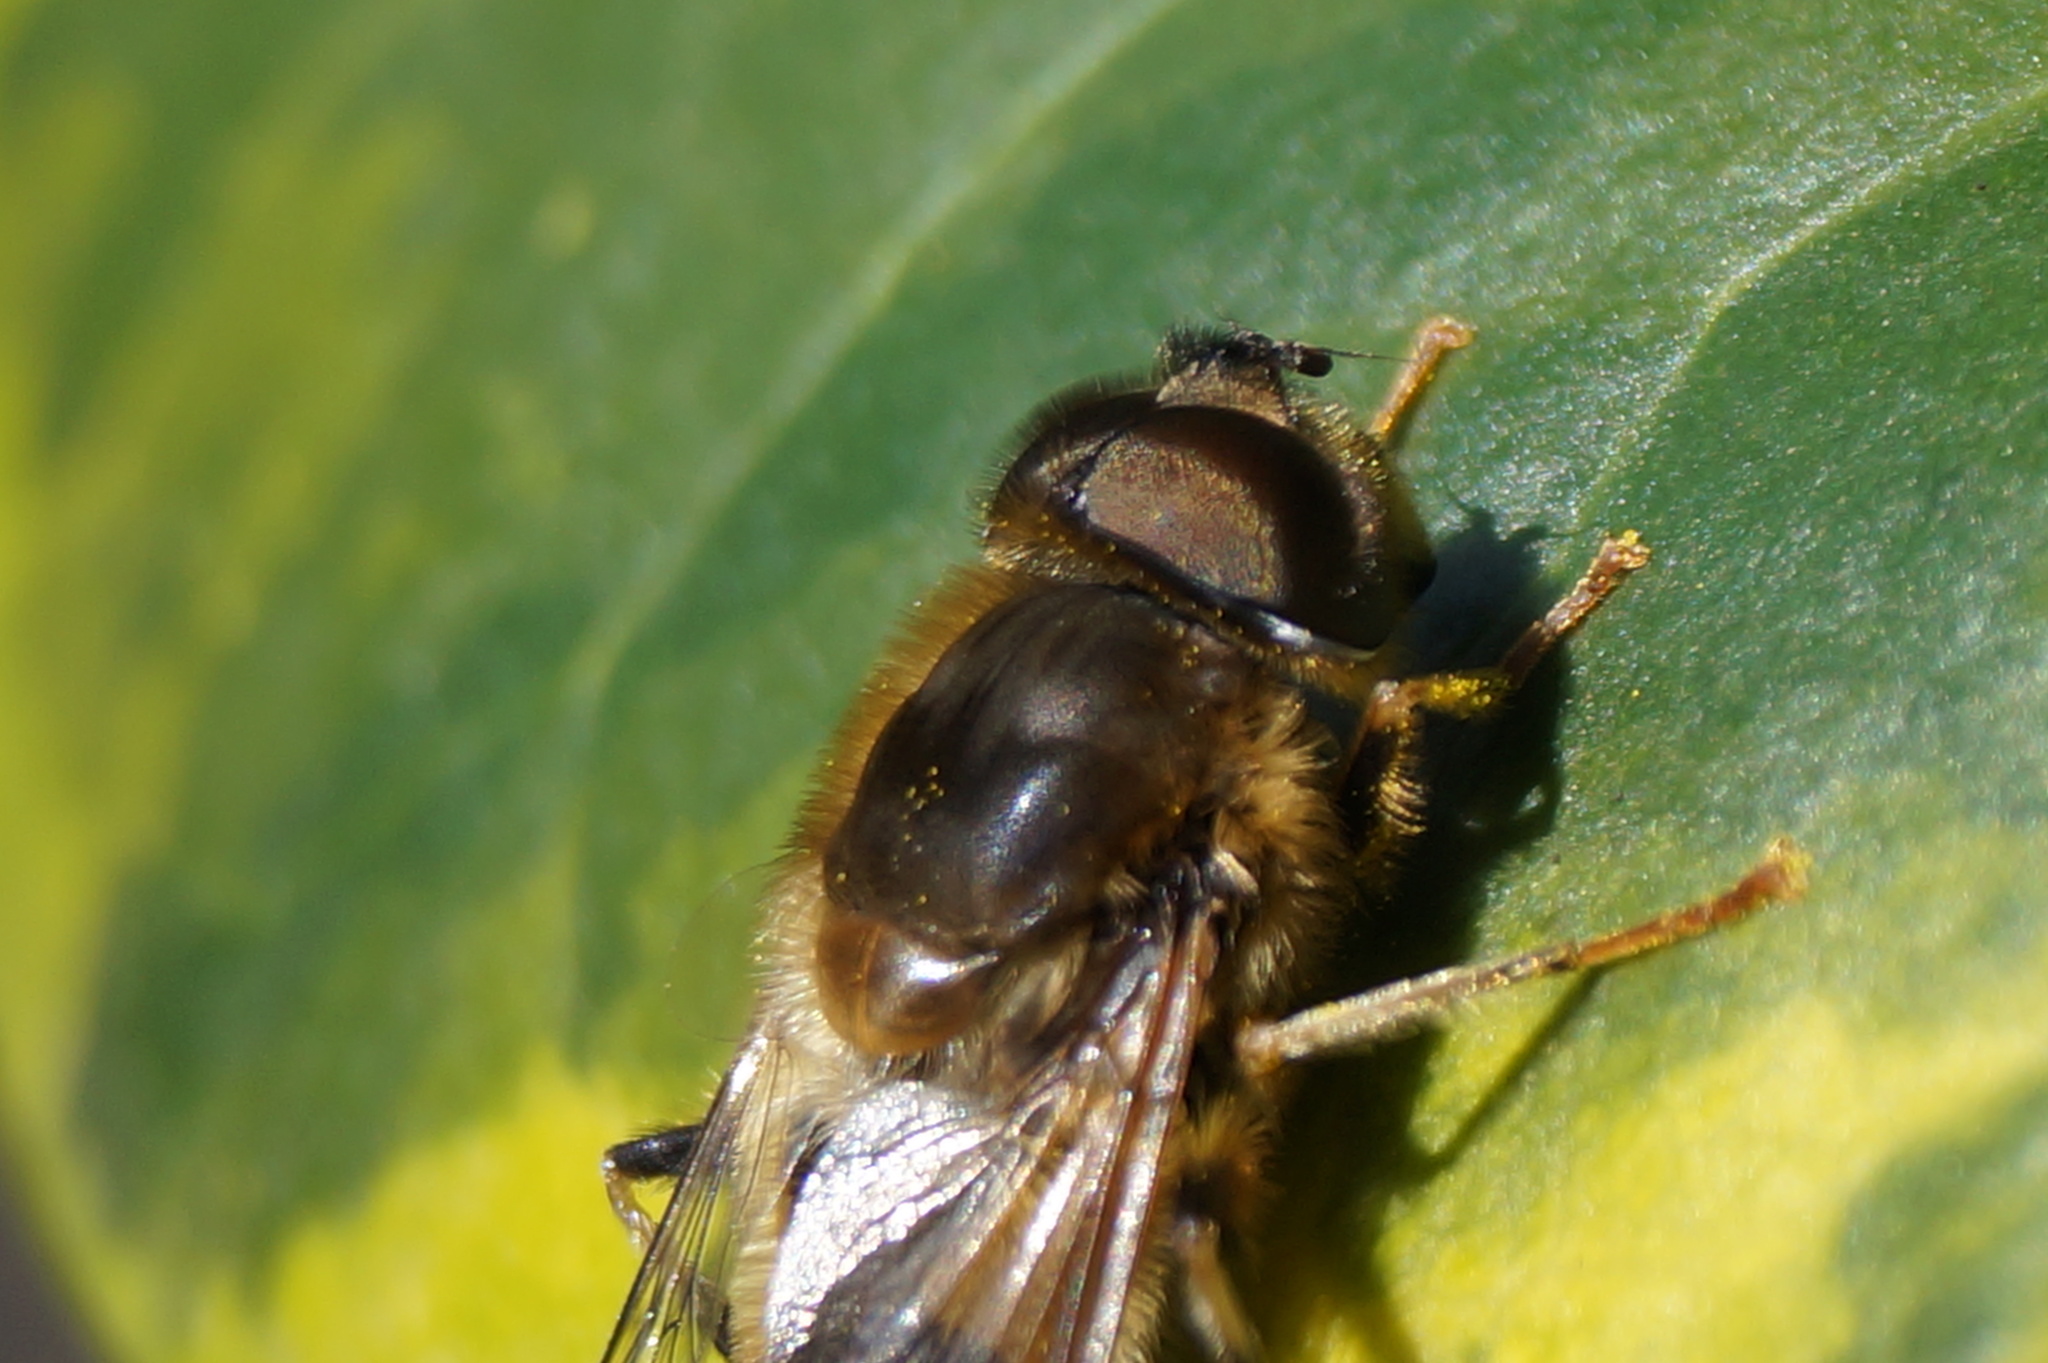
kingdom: Animalia
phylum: Arthropoda
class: Insecta
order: Diptera
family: Syrphidae
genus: Eristalis
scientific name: Eristalis pertinax
